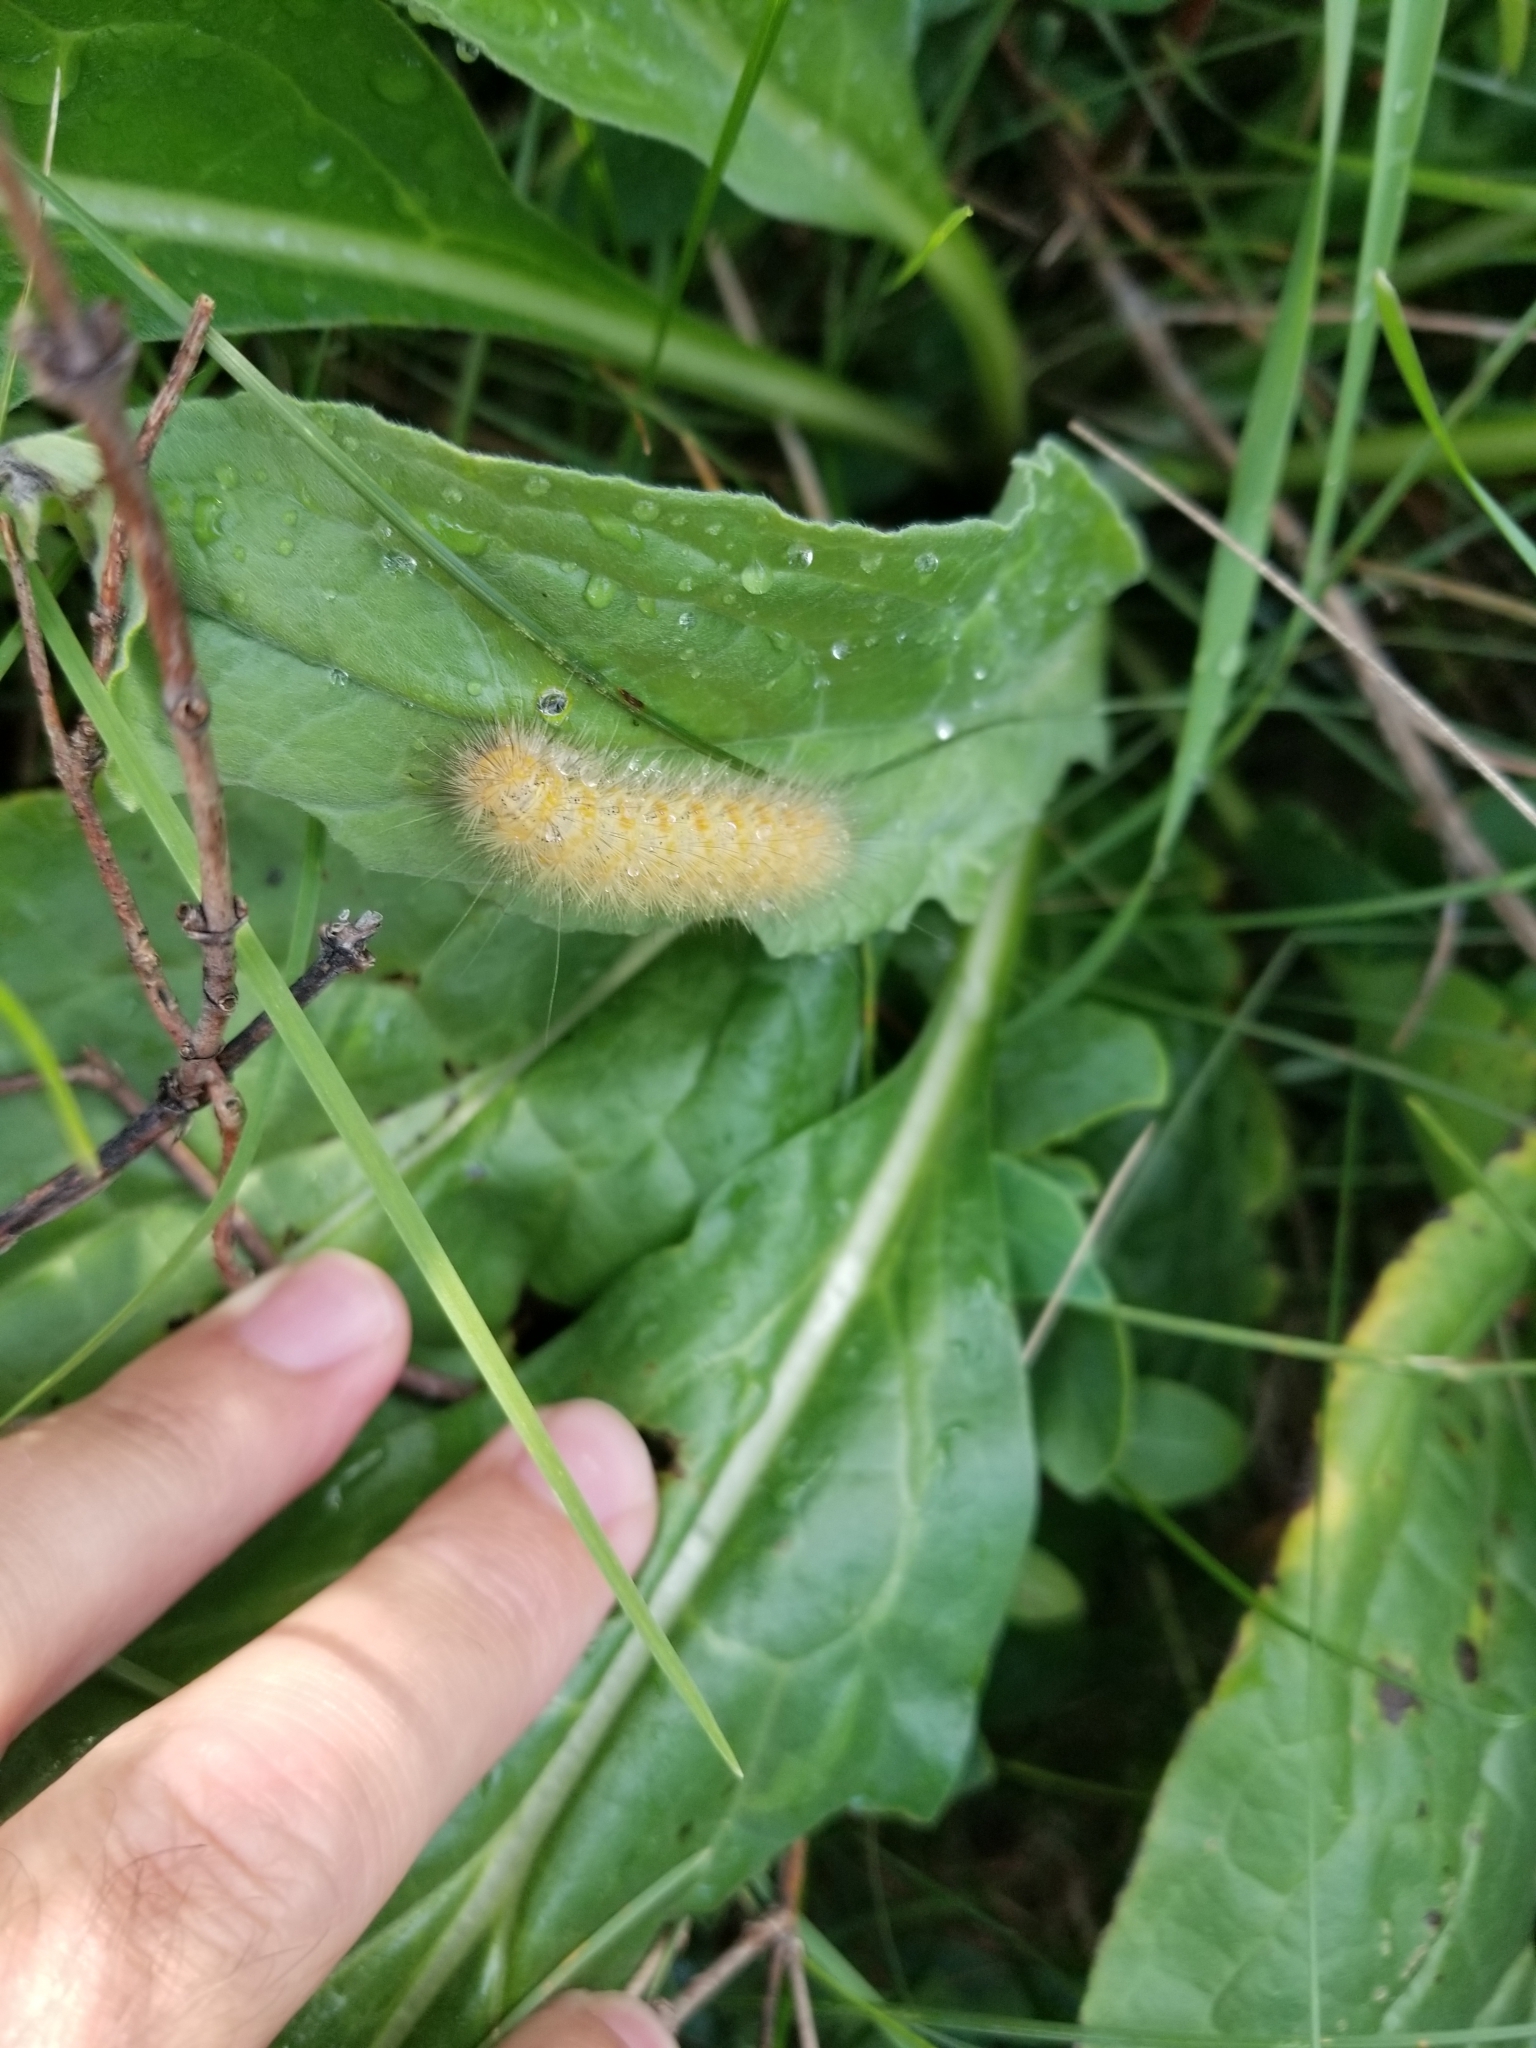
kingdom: Animalia
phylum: Arthropoda
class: Insecta
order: Lepidoptera
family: Erebidae
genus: Estigmene
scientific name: Estigmene acrea
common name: Salt marsh moth
